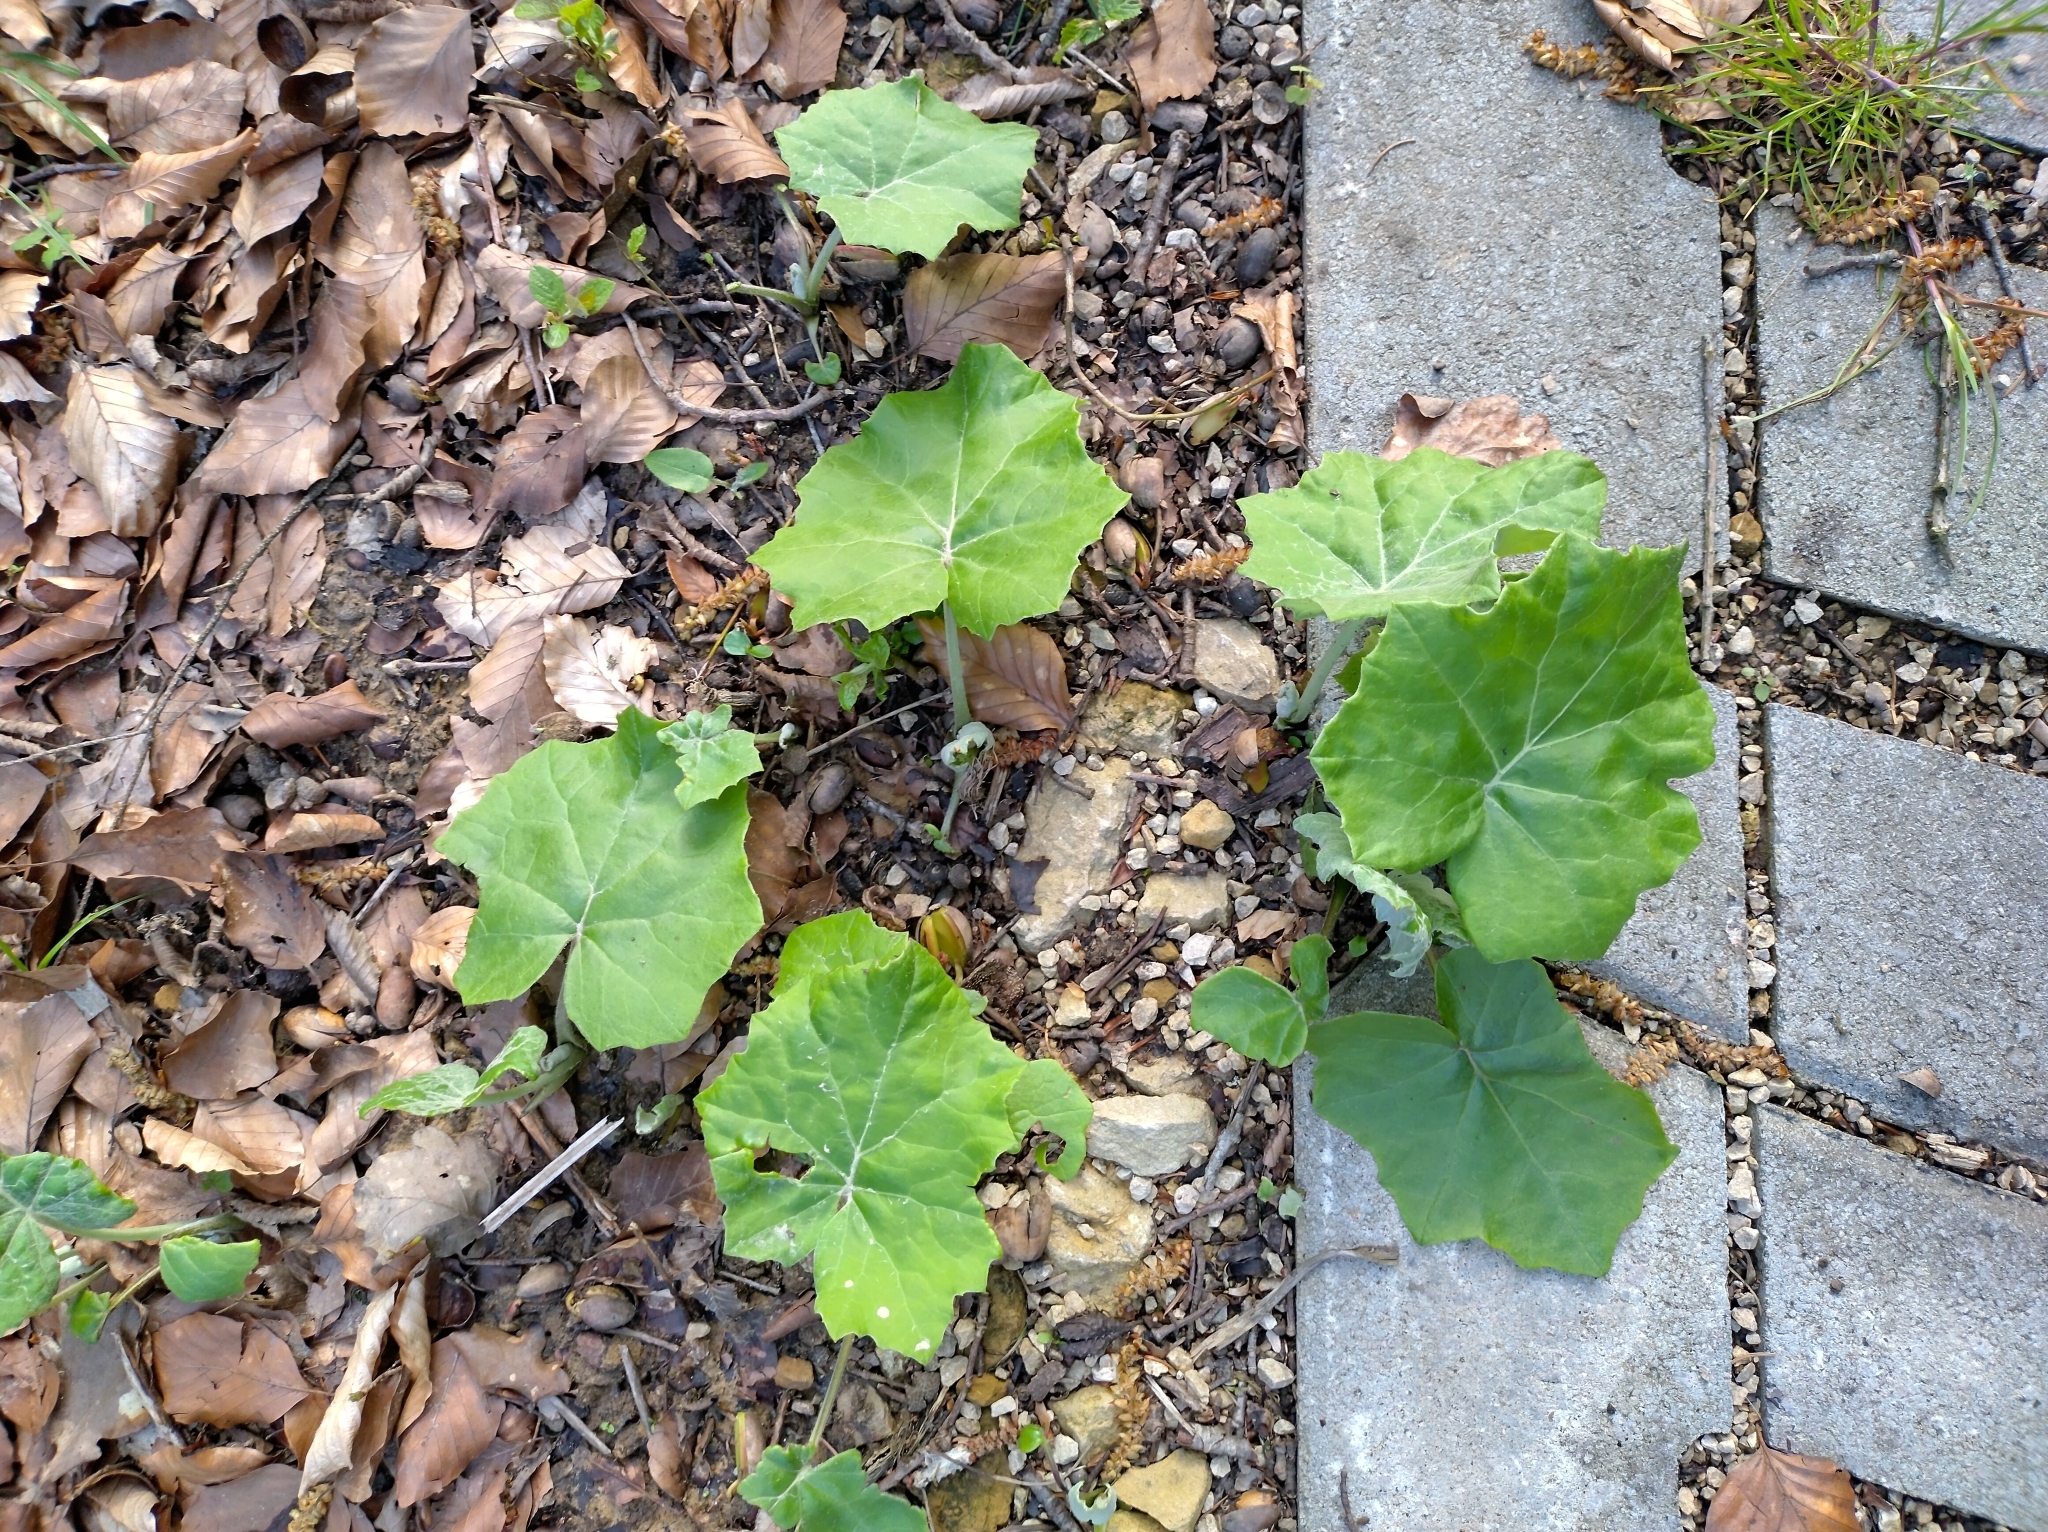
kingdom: Plantae
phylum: Tracheophyta
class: Magnoliopsida
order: Asterales
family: Asteraceae
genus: Tussilago
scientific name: Tussilago farfara
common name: Coltsfoot
